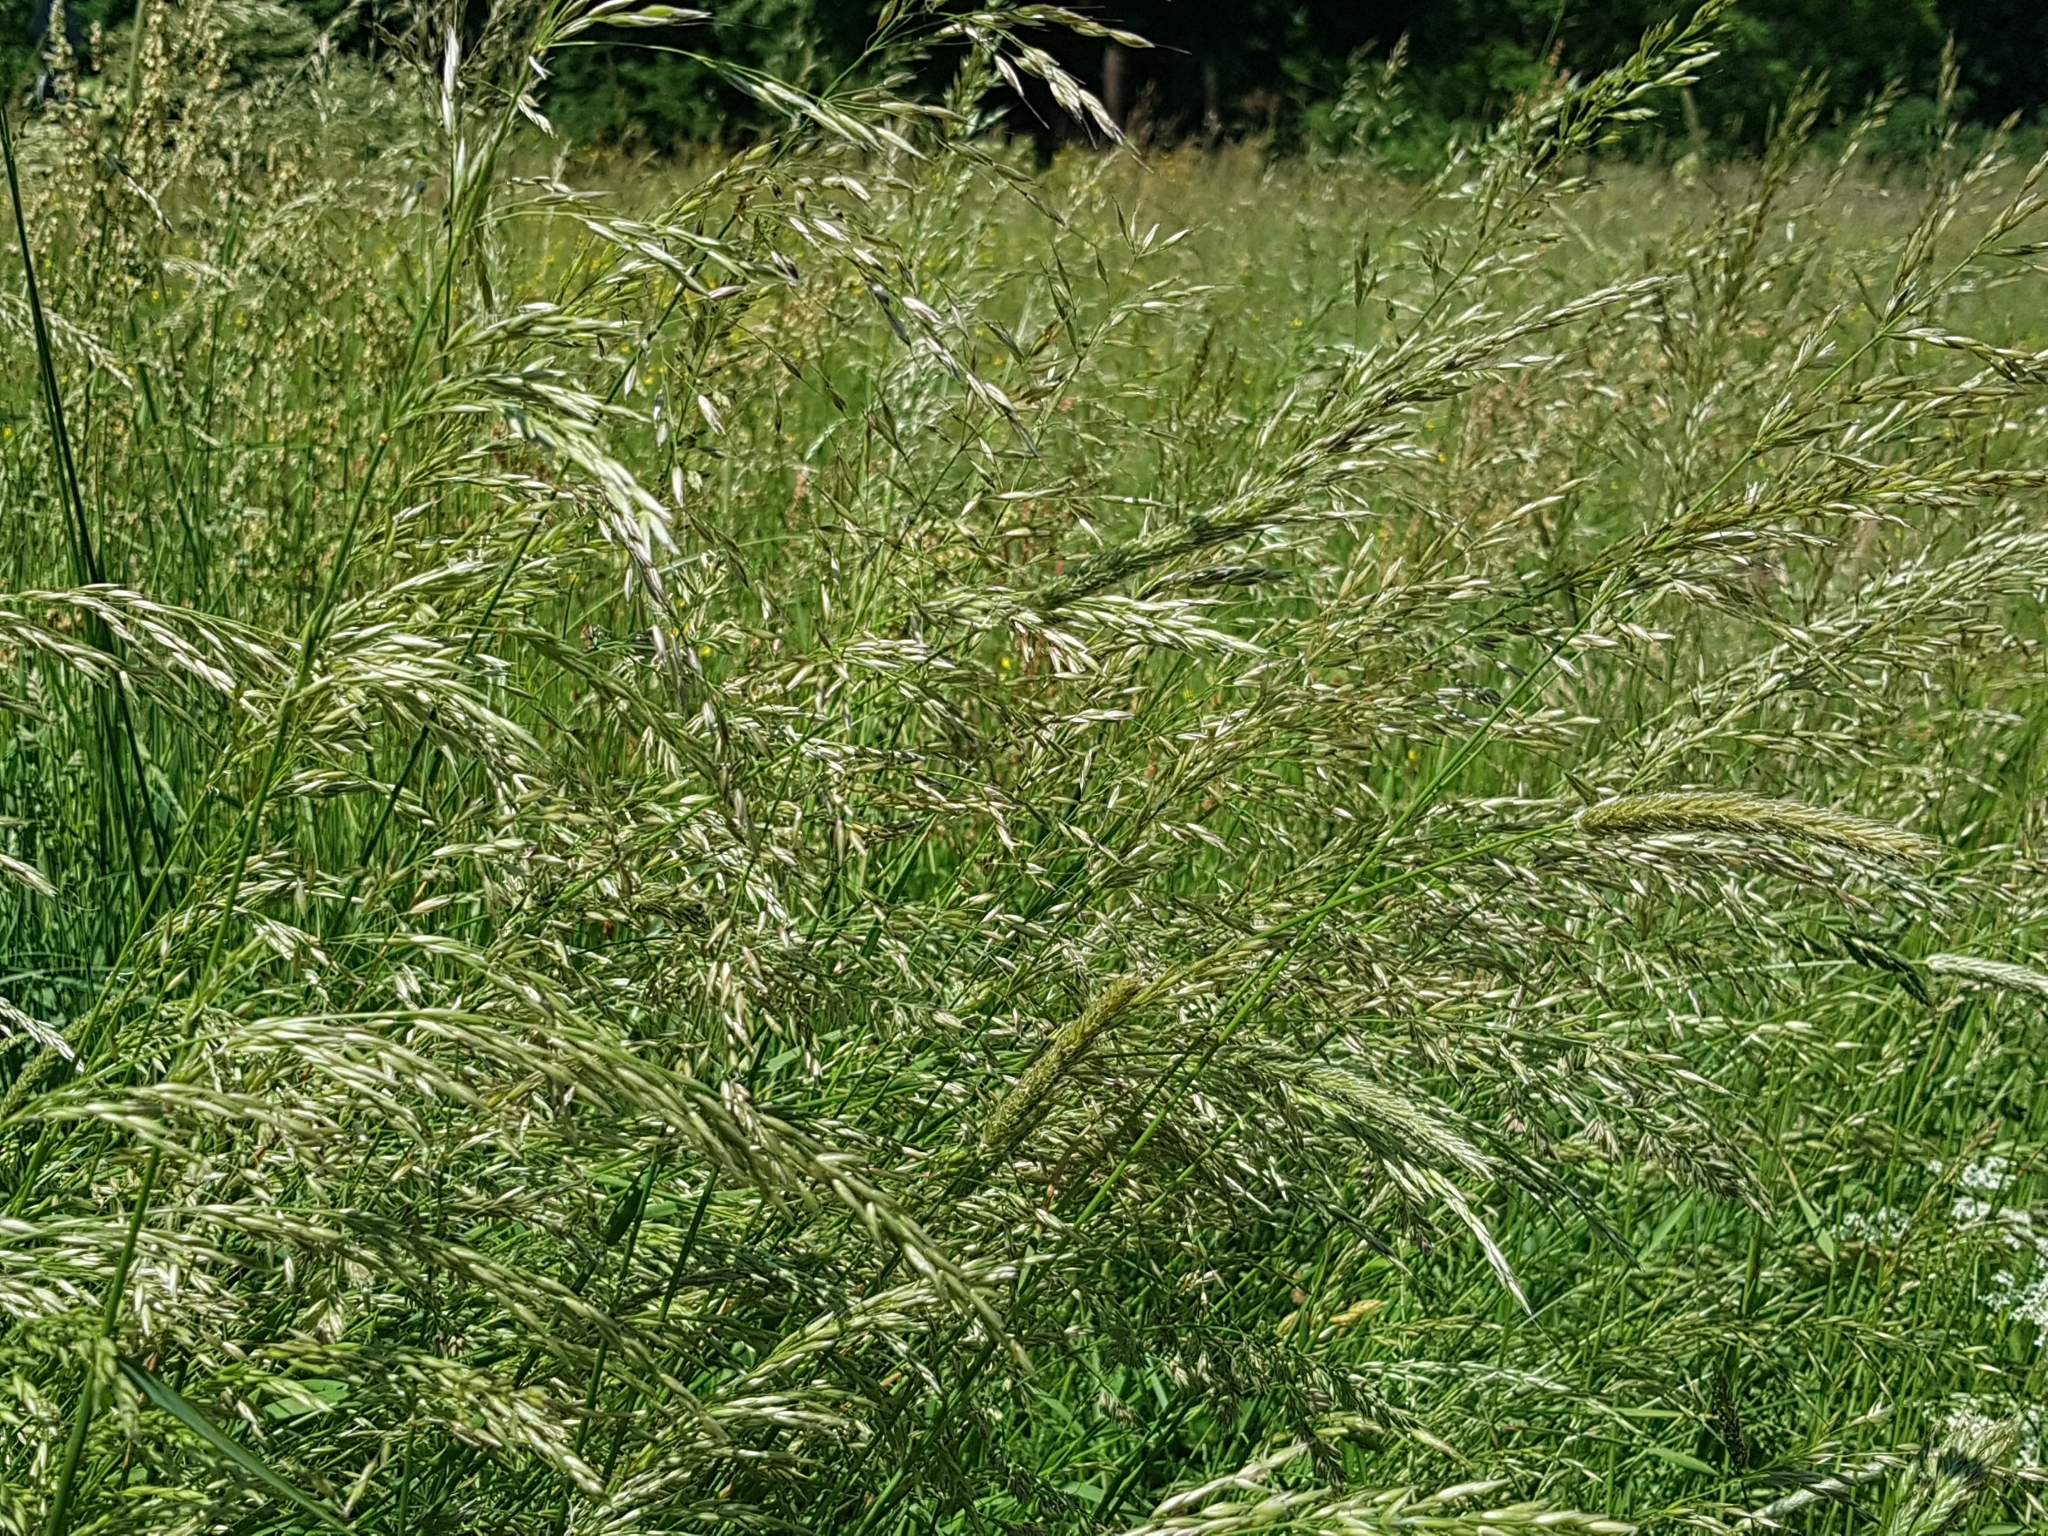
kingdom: Plantae
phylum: Tracheophyta
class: Liliopsida
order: Poales
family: Poaceae
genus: Arrhenatherum
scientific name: Arrhenatherum elatius
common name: Tall oatgrass
